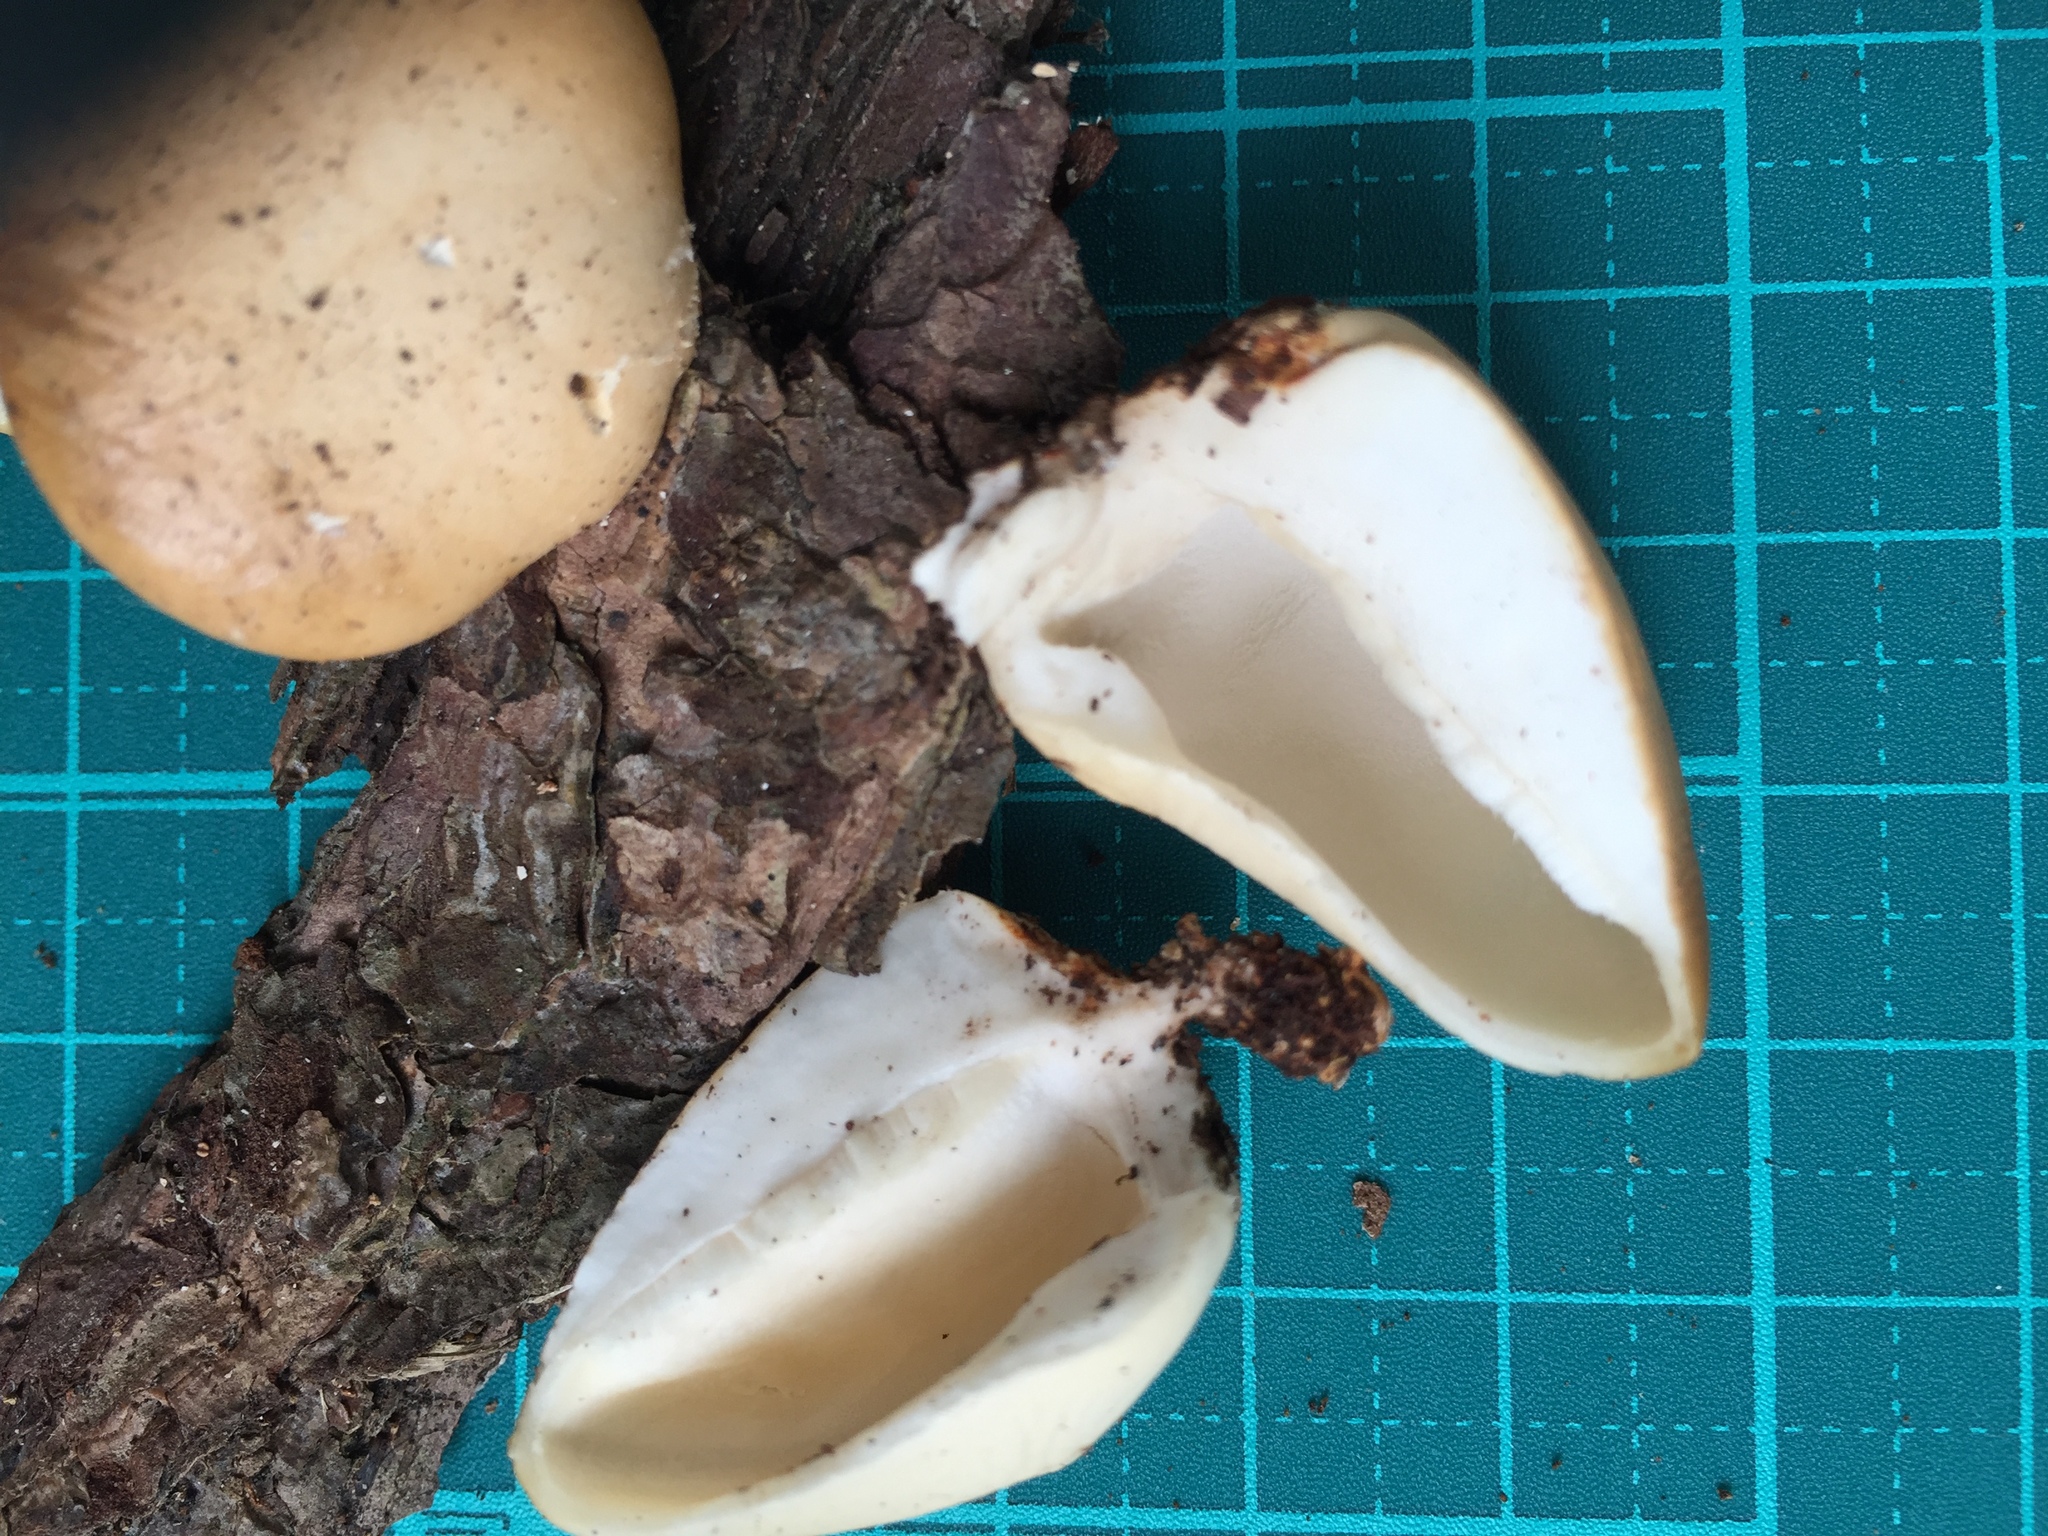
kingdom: Fungi
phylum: Basidiomycota
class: Agaricomycetes
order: Polyporales
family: Polyporaceae
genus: Cryptoporus
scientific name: Cryptoporus volvatus
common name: Veiled polypore
